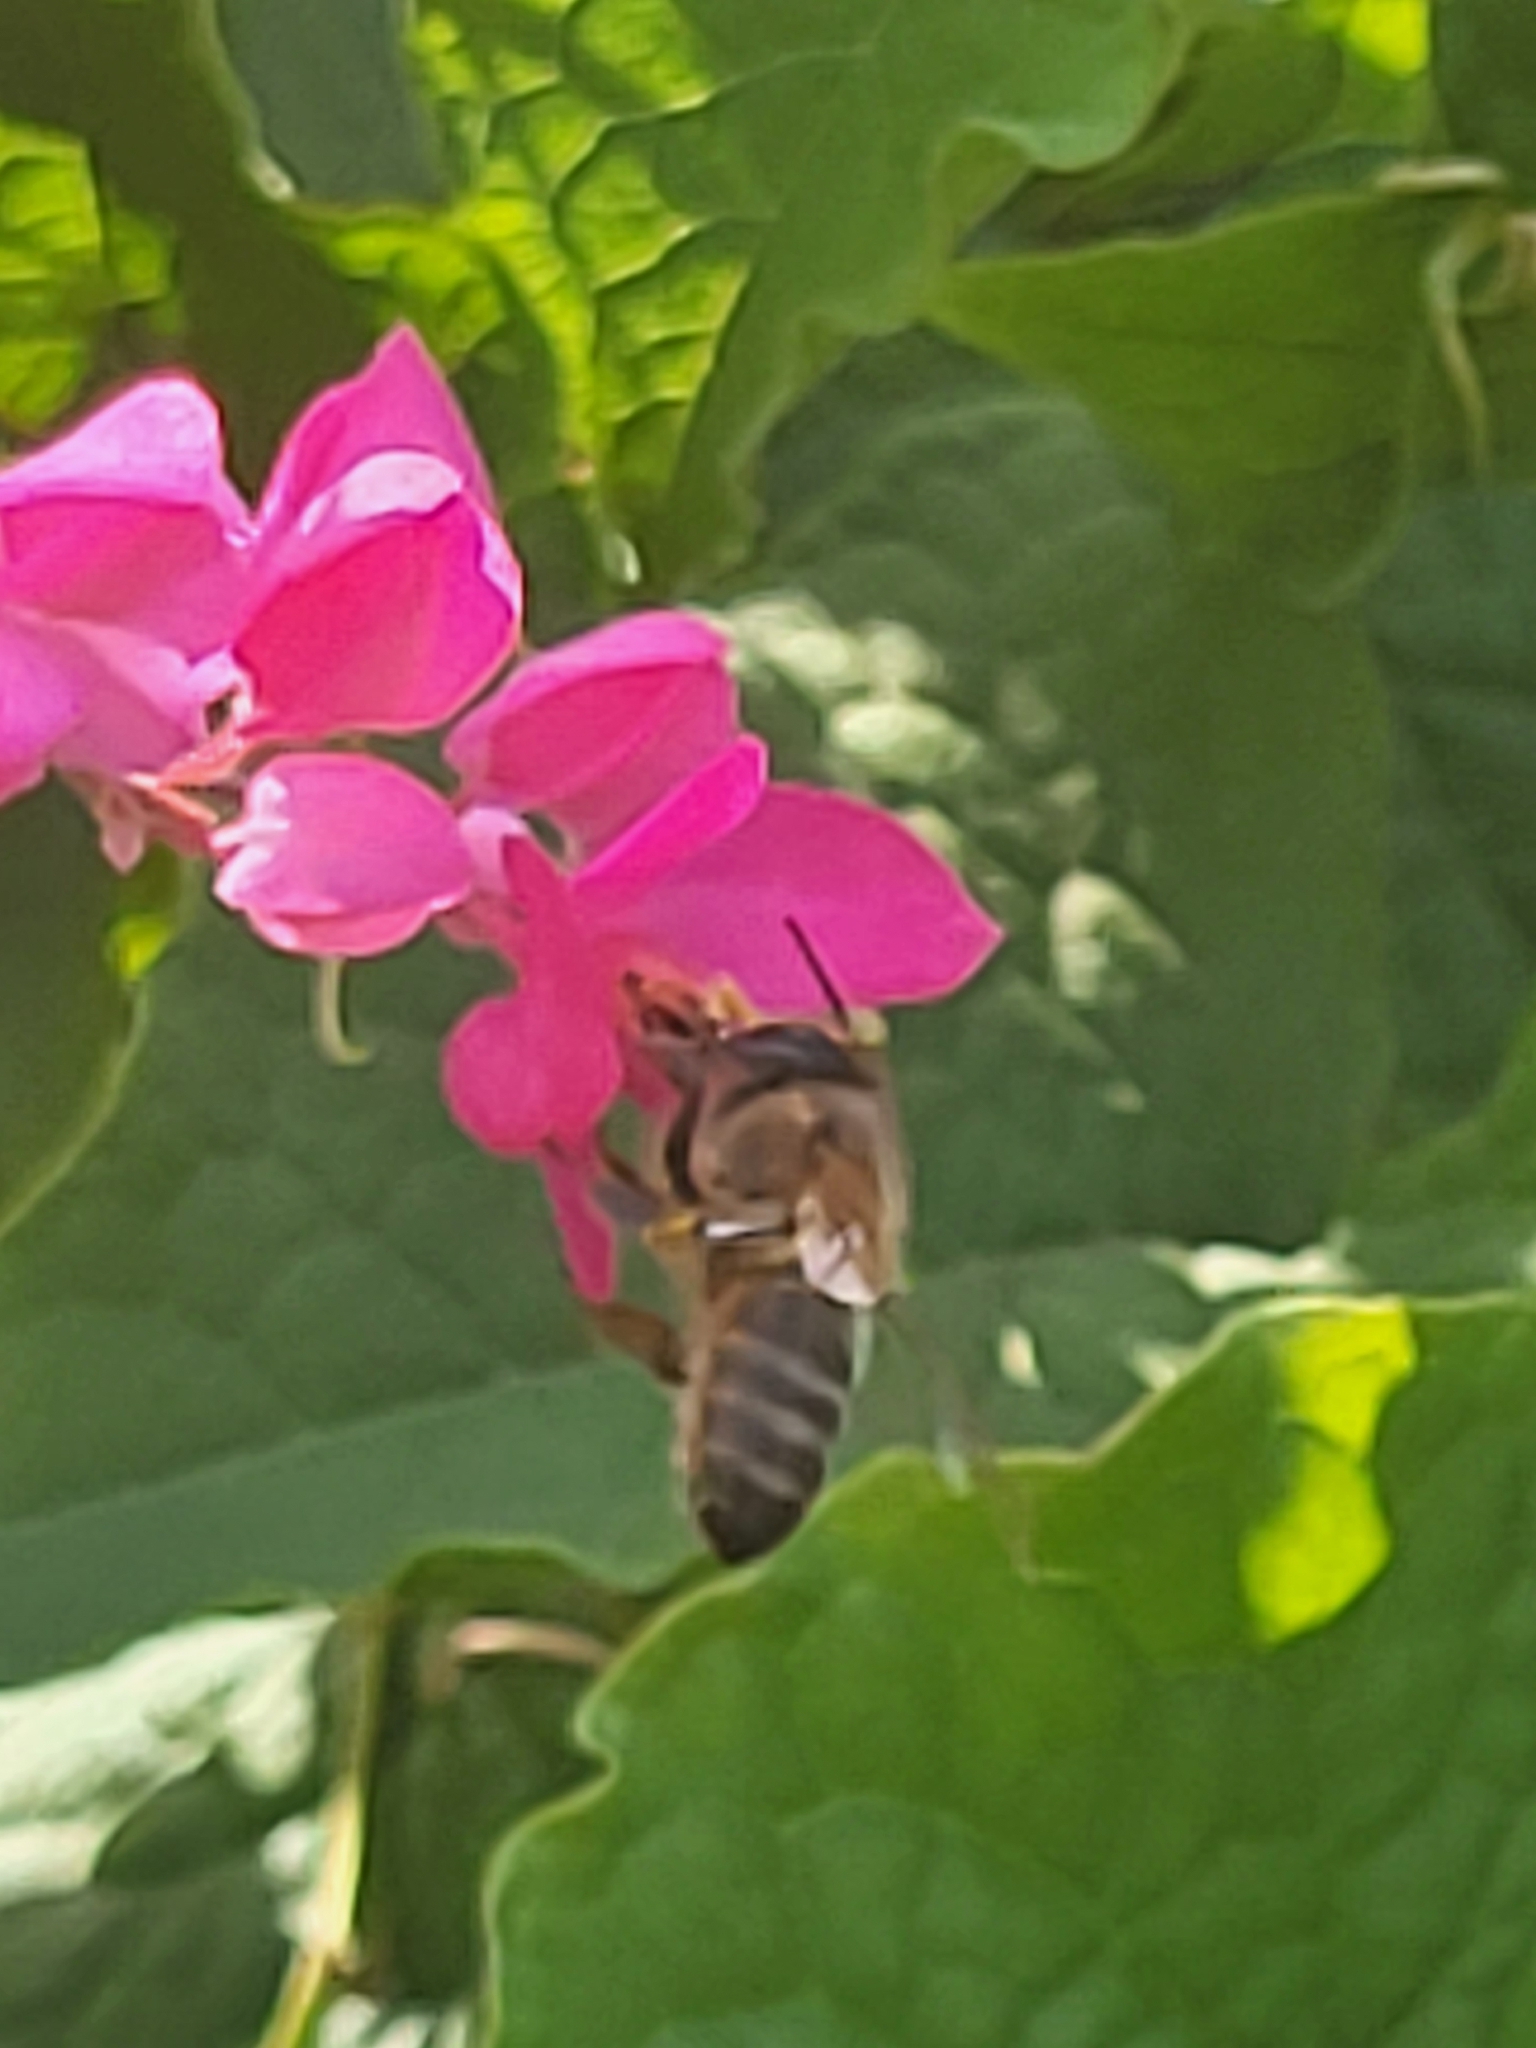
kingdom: Animalia
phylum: Arthropoda
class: Insecta
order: Hymenoptera
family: Apidae
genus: Apis
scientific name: Apis mellifera
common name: Honey bee
